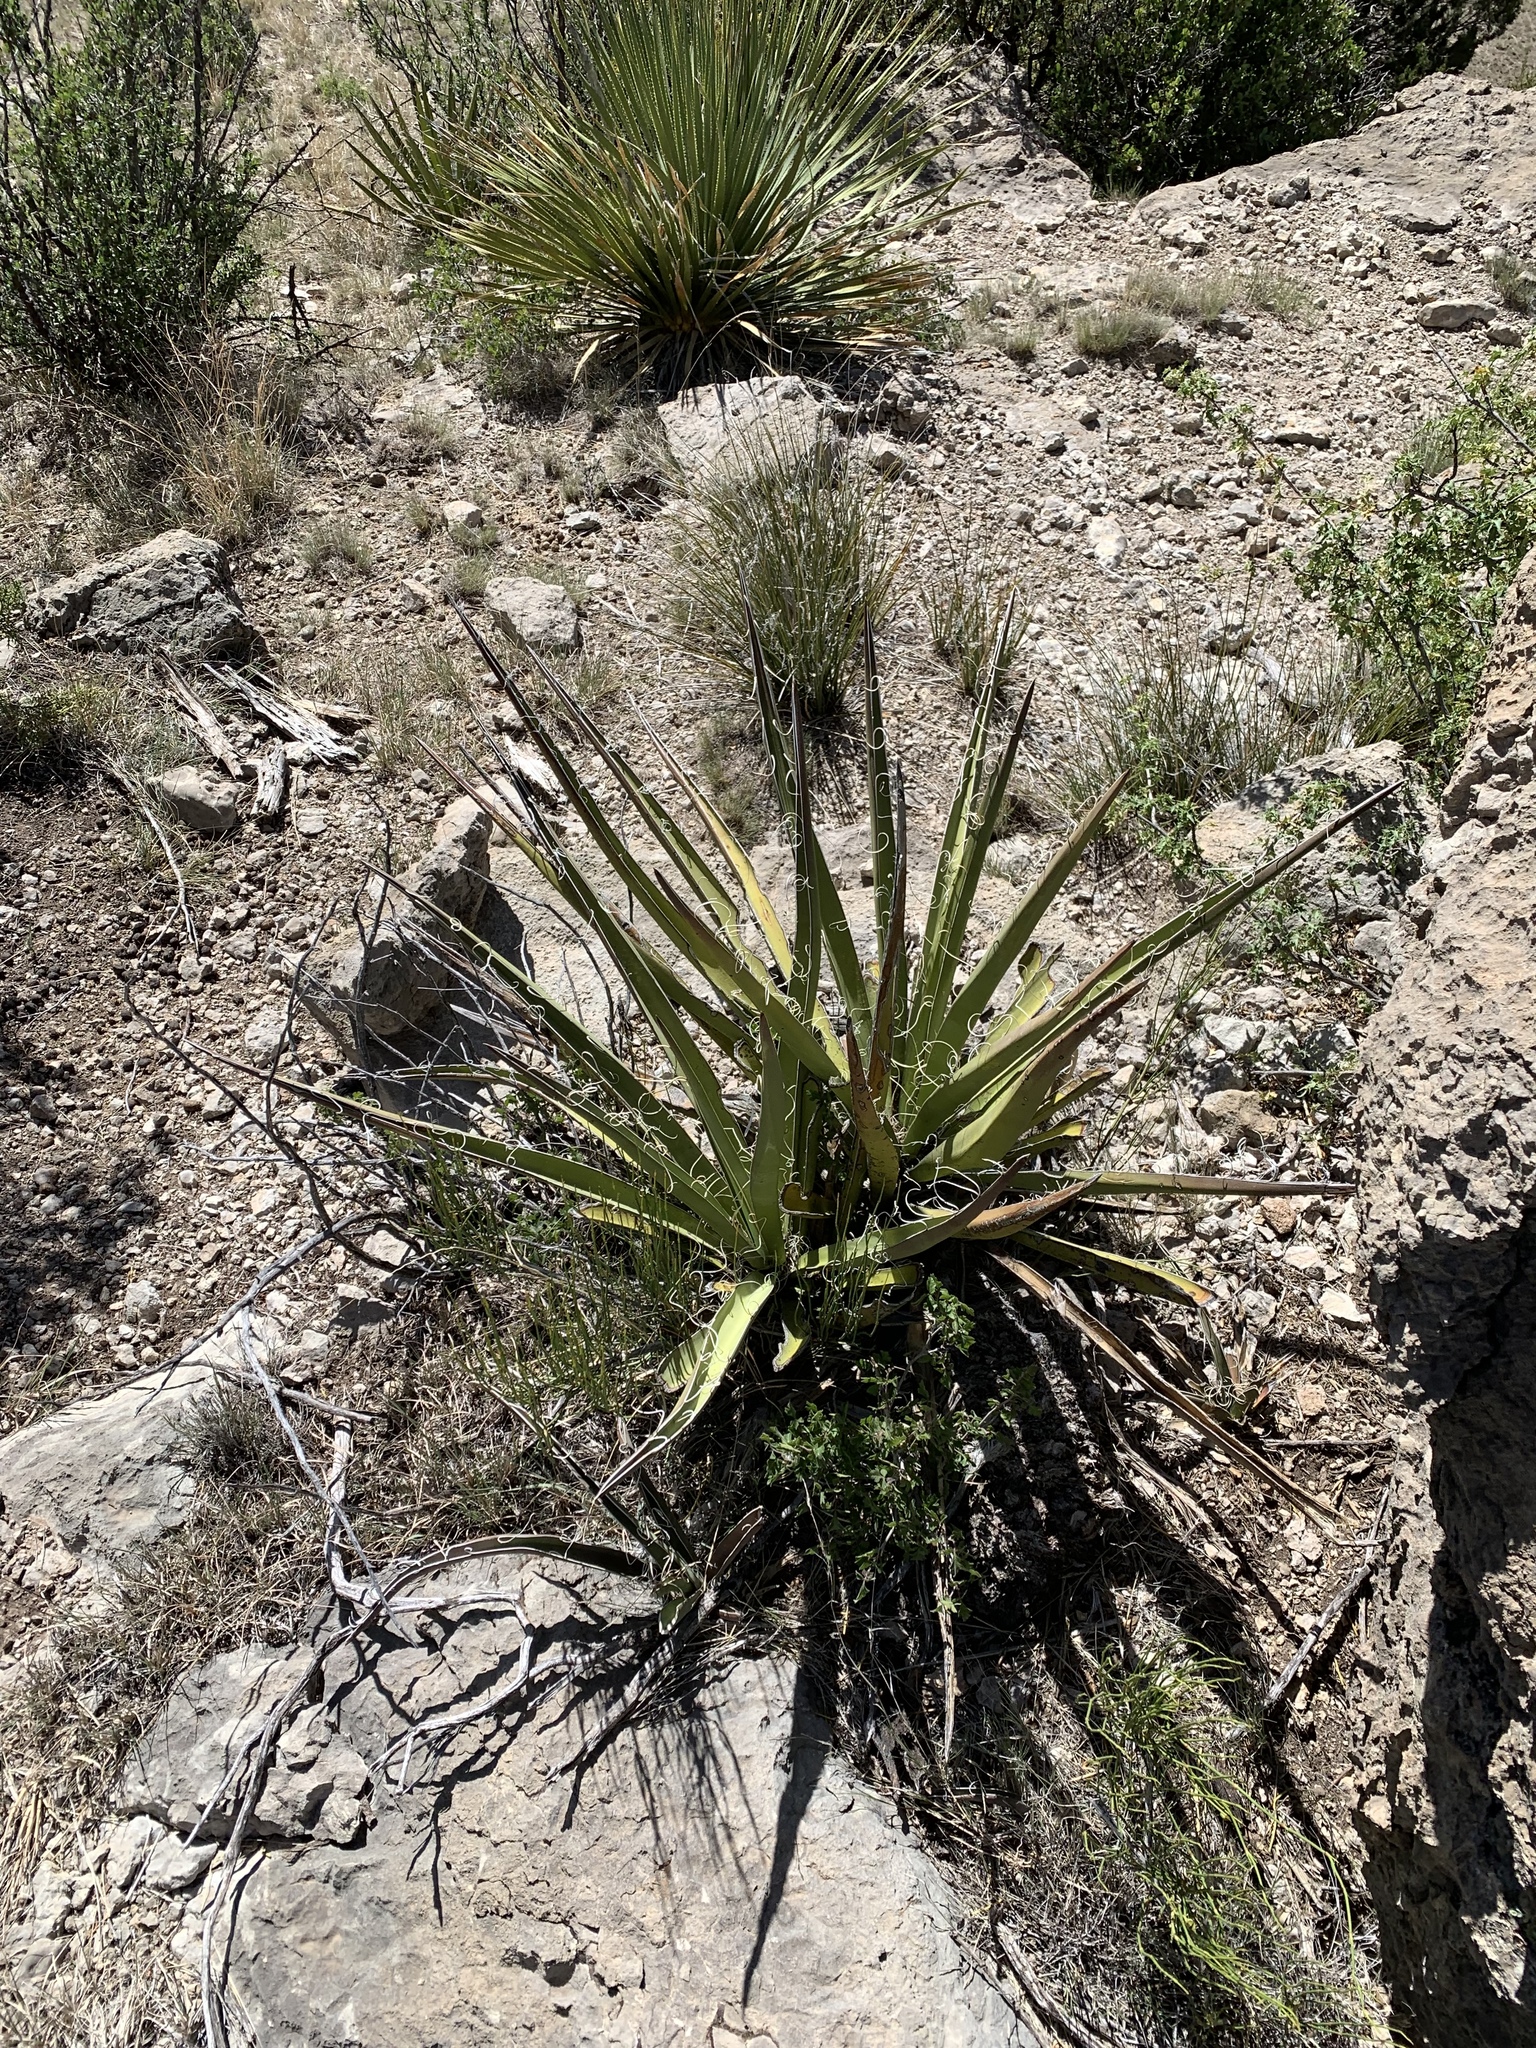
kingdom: Plantae
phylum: Tracheophyta
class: Liliopsida
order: Asparagales
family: Asparagaceae
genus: Yucca
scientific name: Yucca baccata
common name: Banana yucca
